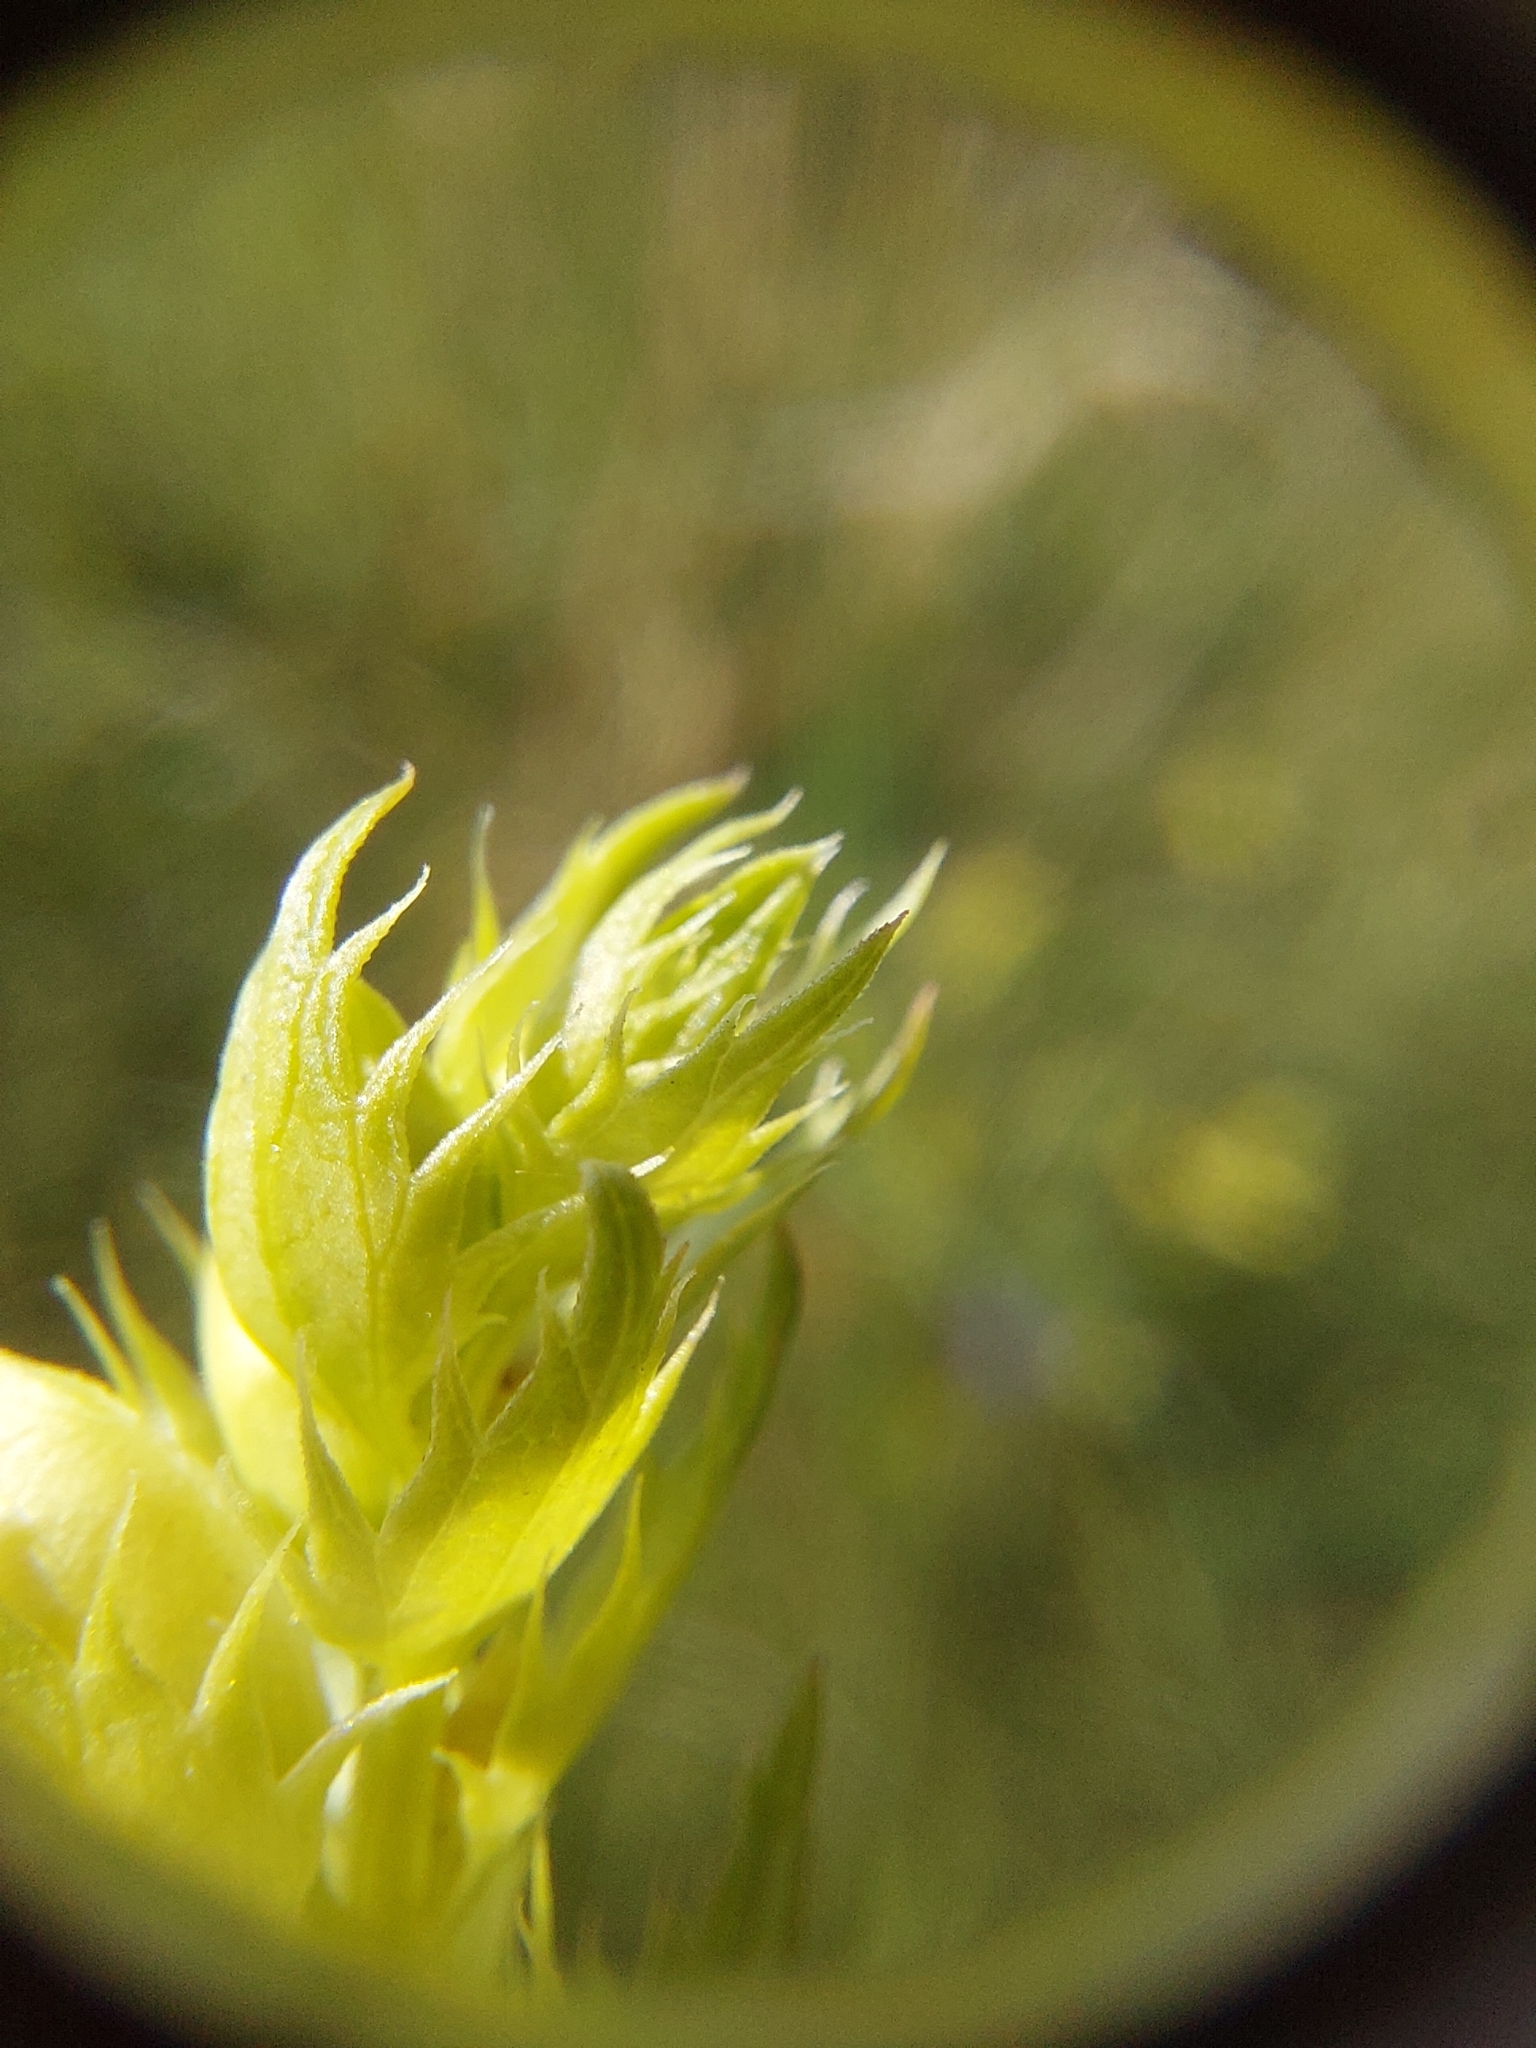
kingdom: Plantae
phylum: Tracheophyta
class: Magnoliopsida
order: Lamiales
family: Orobanchaceae
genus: Rhinanthus
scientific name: Rhinanthus glacialis
